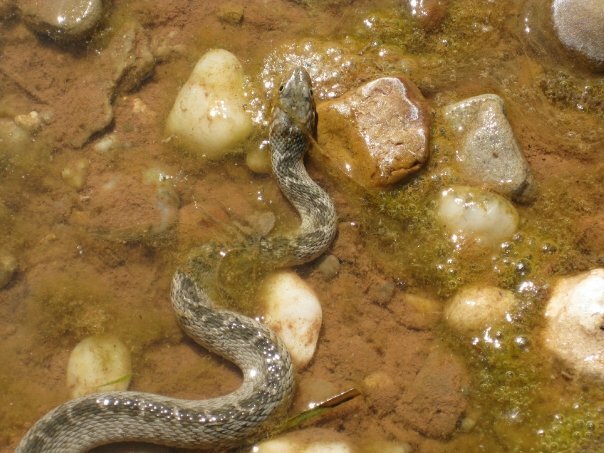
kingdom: Animalia
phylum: Chordata
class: Squamata
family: Colubridae
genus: Nerodia
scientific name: Nerodia erythrogaster
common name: Plainbelly water snake
